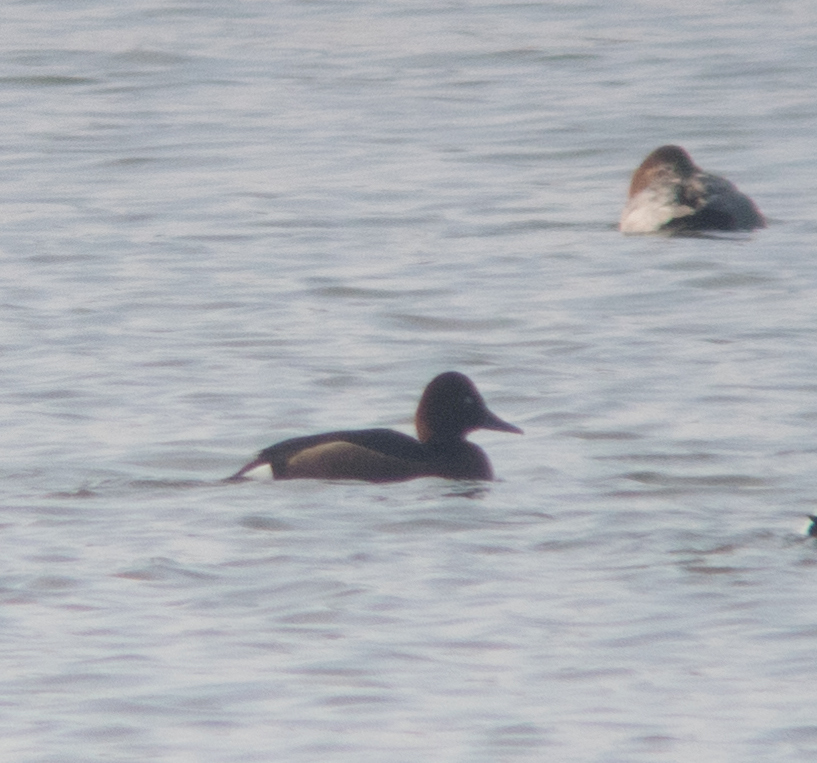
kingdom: Animalia
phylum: Chordata
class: Aves
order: Anseriformes
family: Anatidae
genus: Aythya
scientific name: Aythya nyroca
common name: Ferruginous duck
